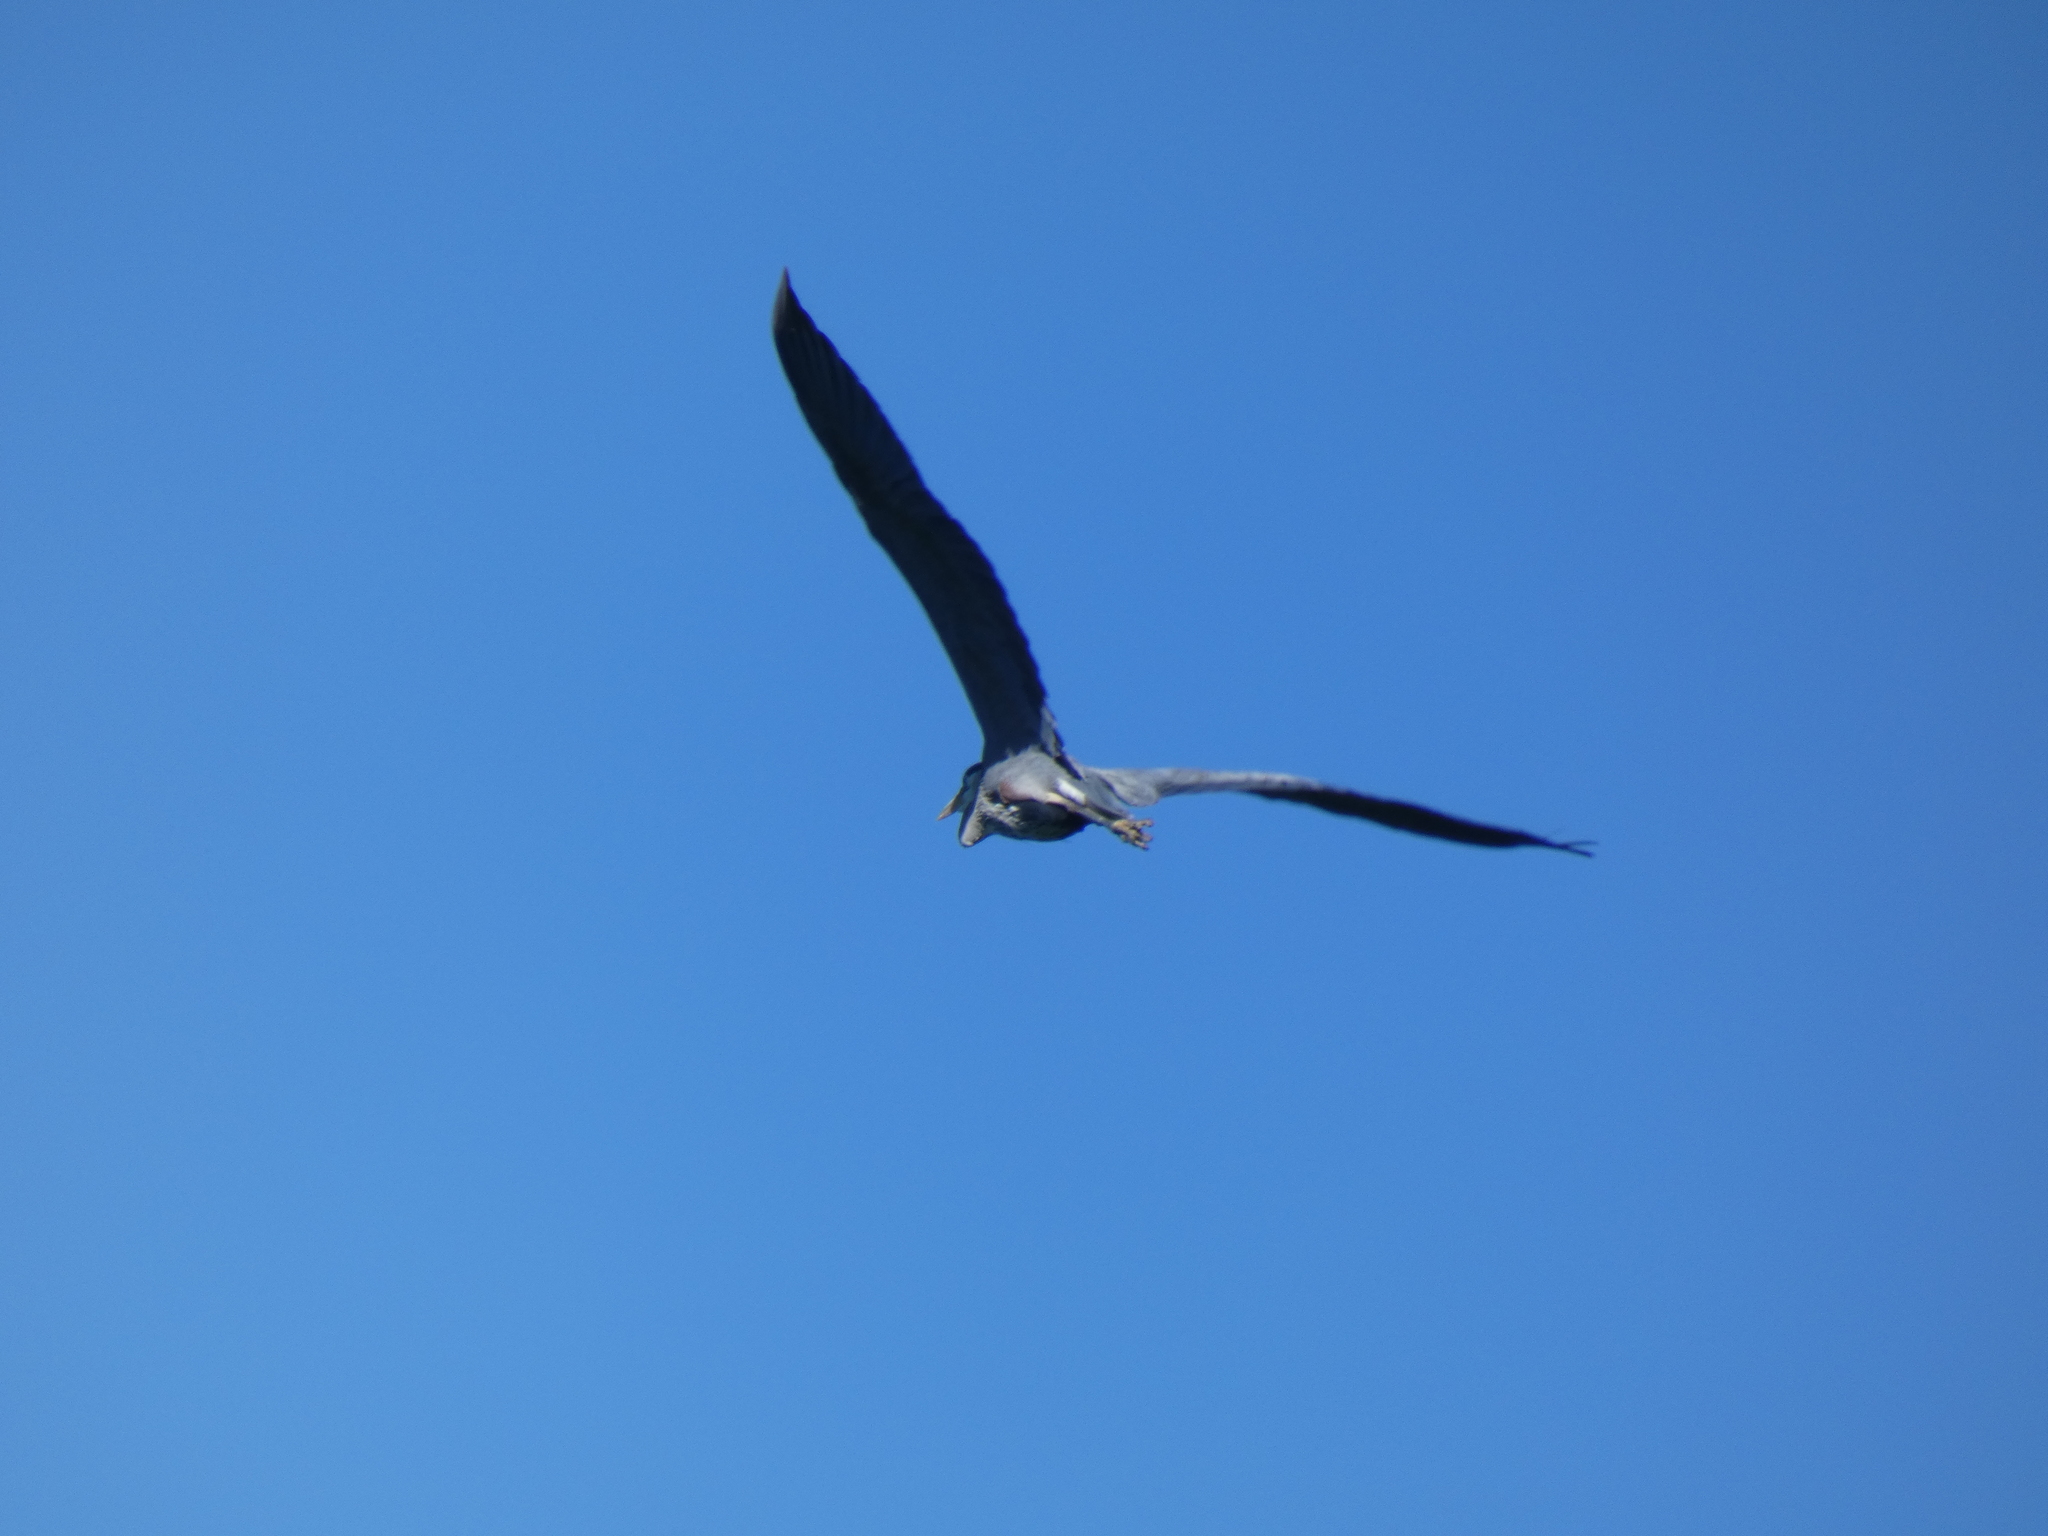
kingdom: Animalia
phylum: Chordata
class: Aves
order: Pelecaniformes
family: Ardeidae
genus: Ardea
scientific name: Ardea herodias
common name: Great blue heron
